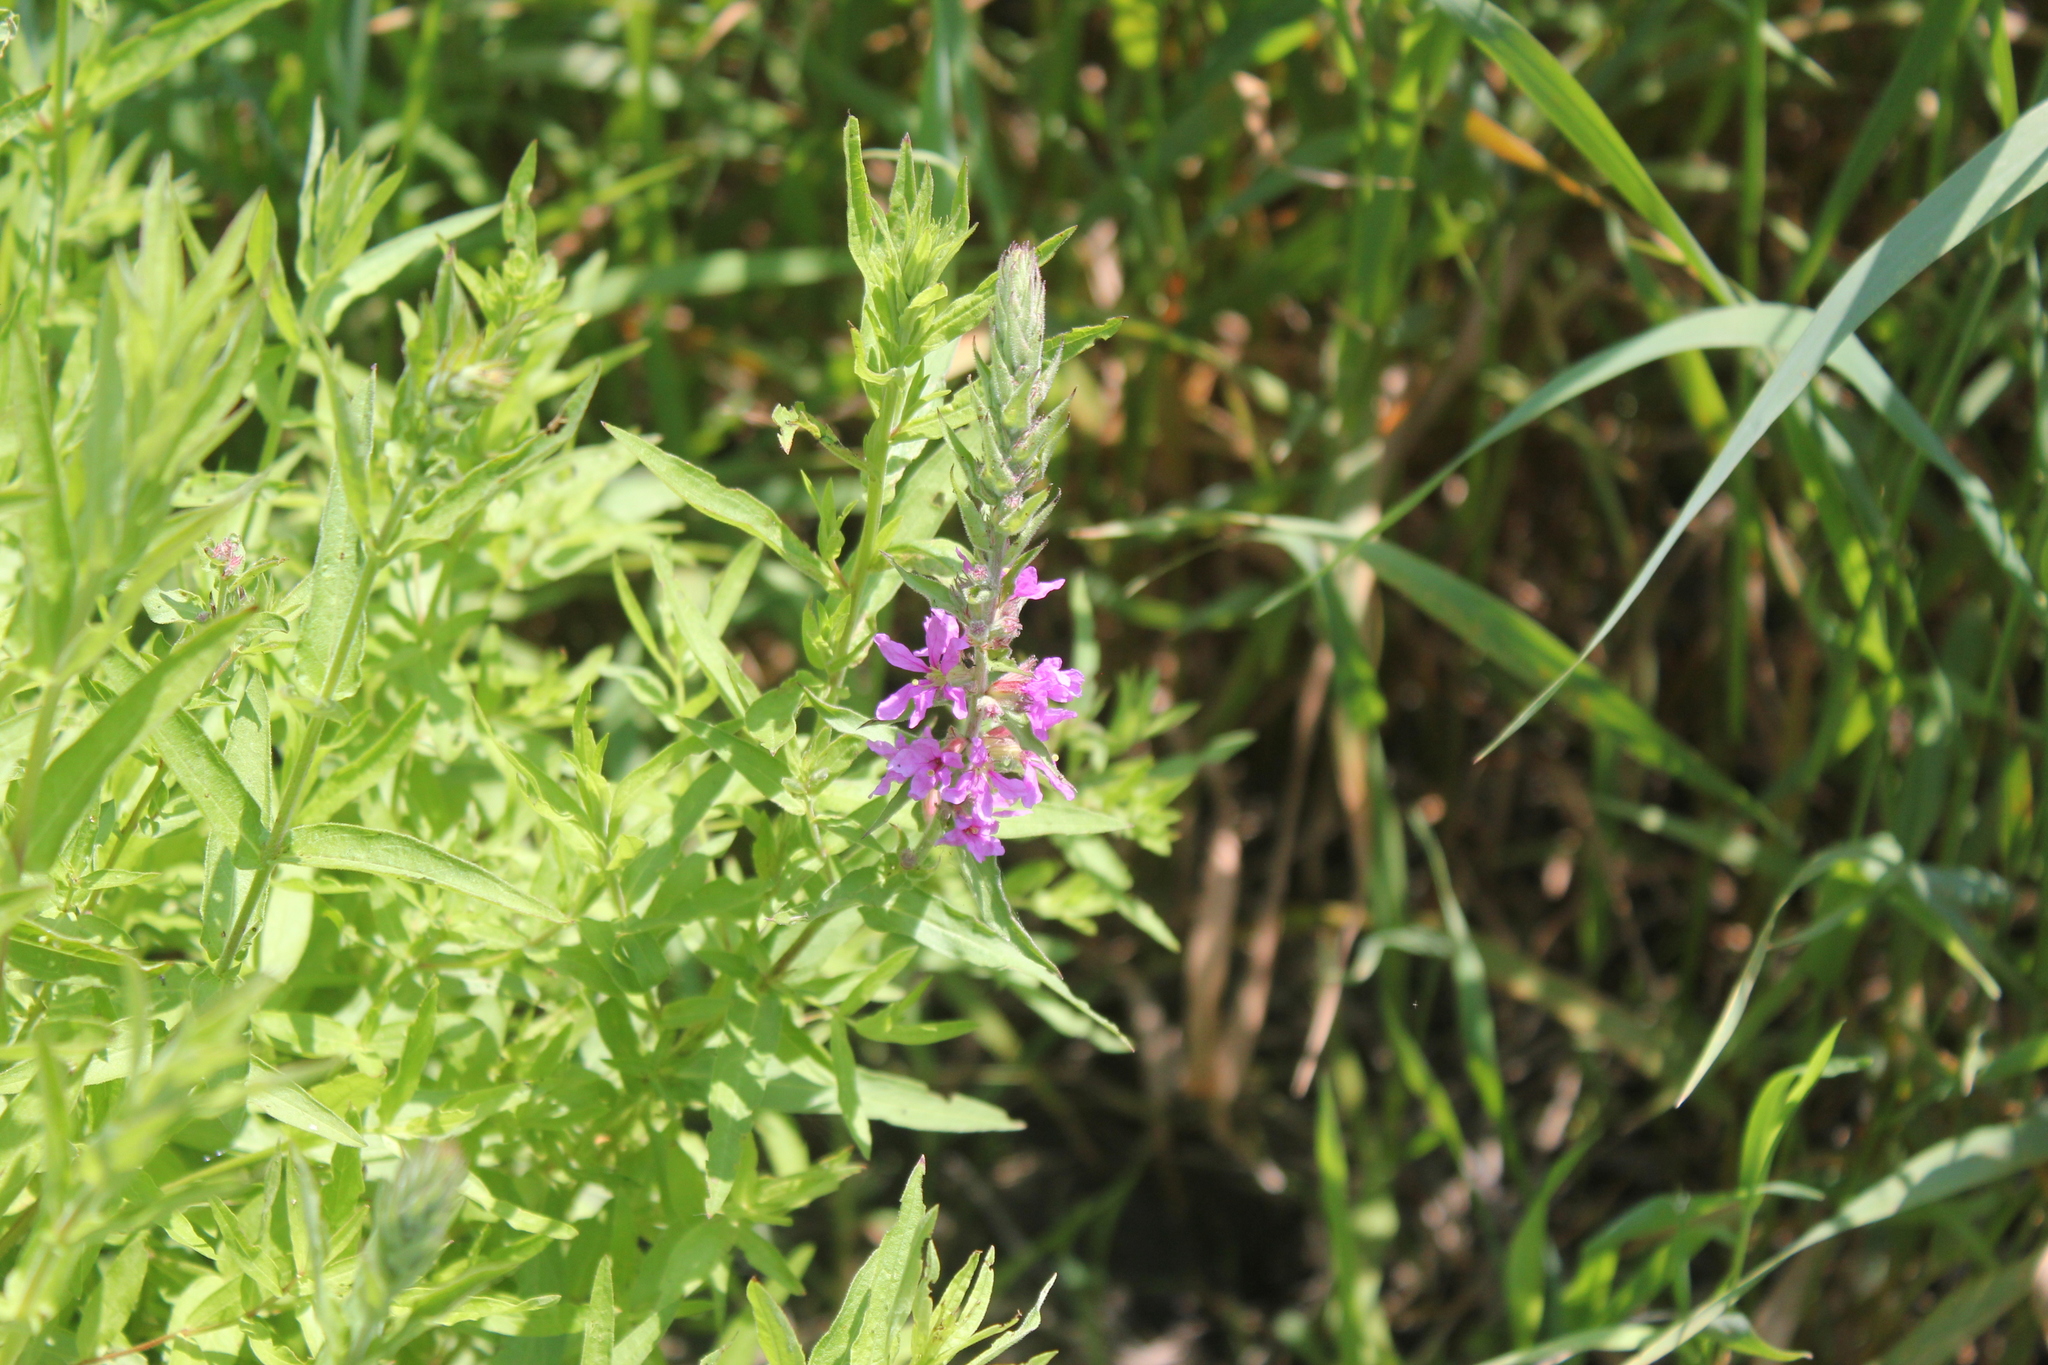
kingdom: Plantae
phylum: Tracheophyta
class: Magnoliopsida
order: Myrtales
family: Lythraceae
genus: Lythrum
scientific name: Lythrum salicaria
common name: Purple loosestrife
